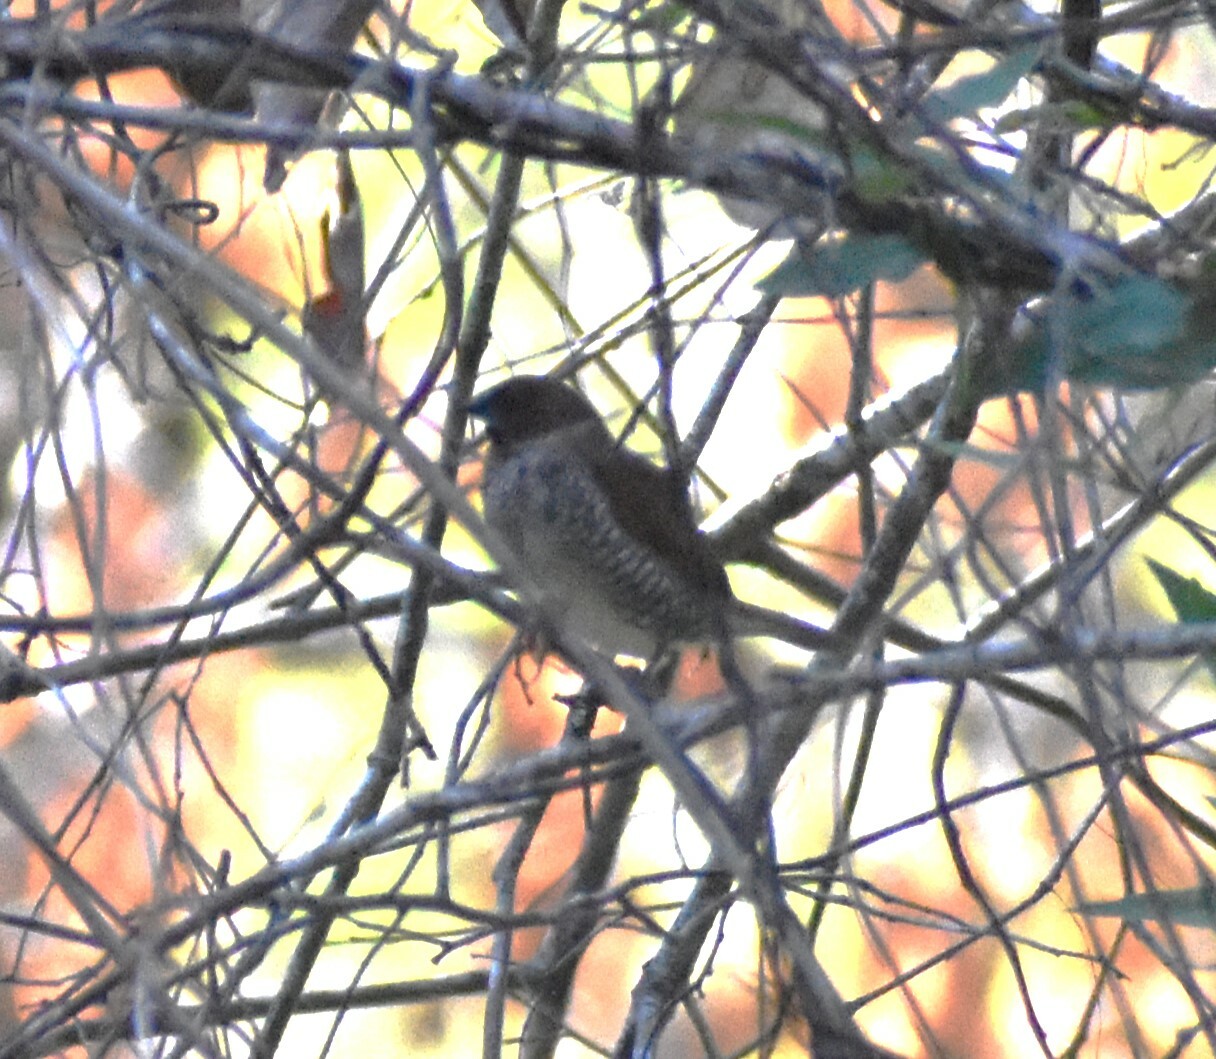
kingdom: Animalia
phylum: Chordata
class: Aves
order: Passeriformes
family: Estrildidae
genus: Lonchura
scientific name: Lonchura punctulata
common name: Scaly-breasted munia
